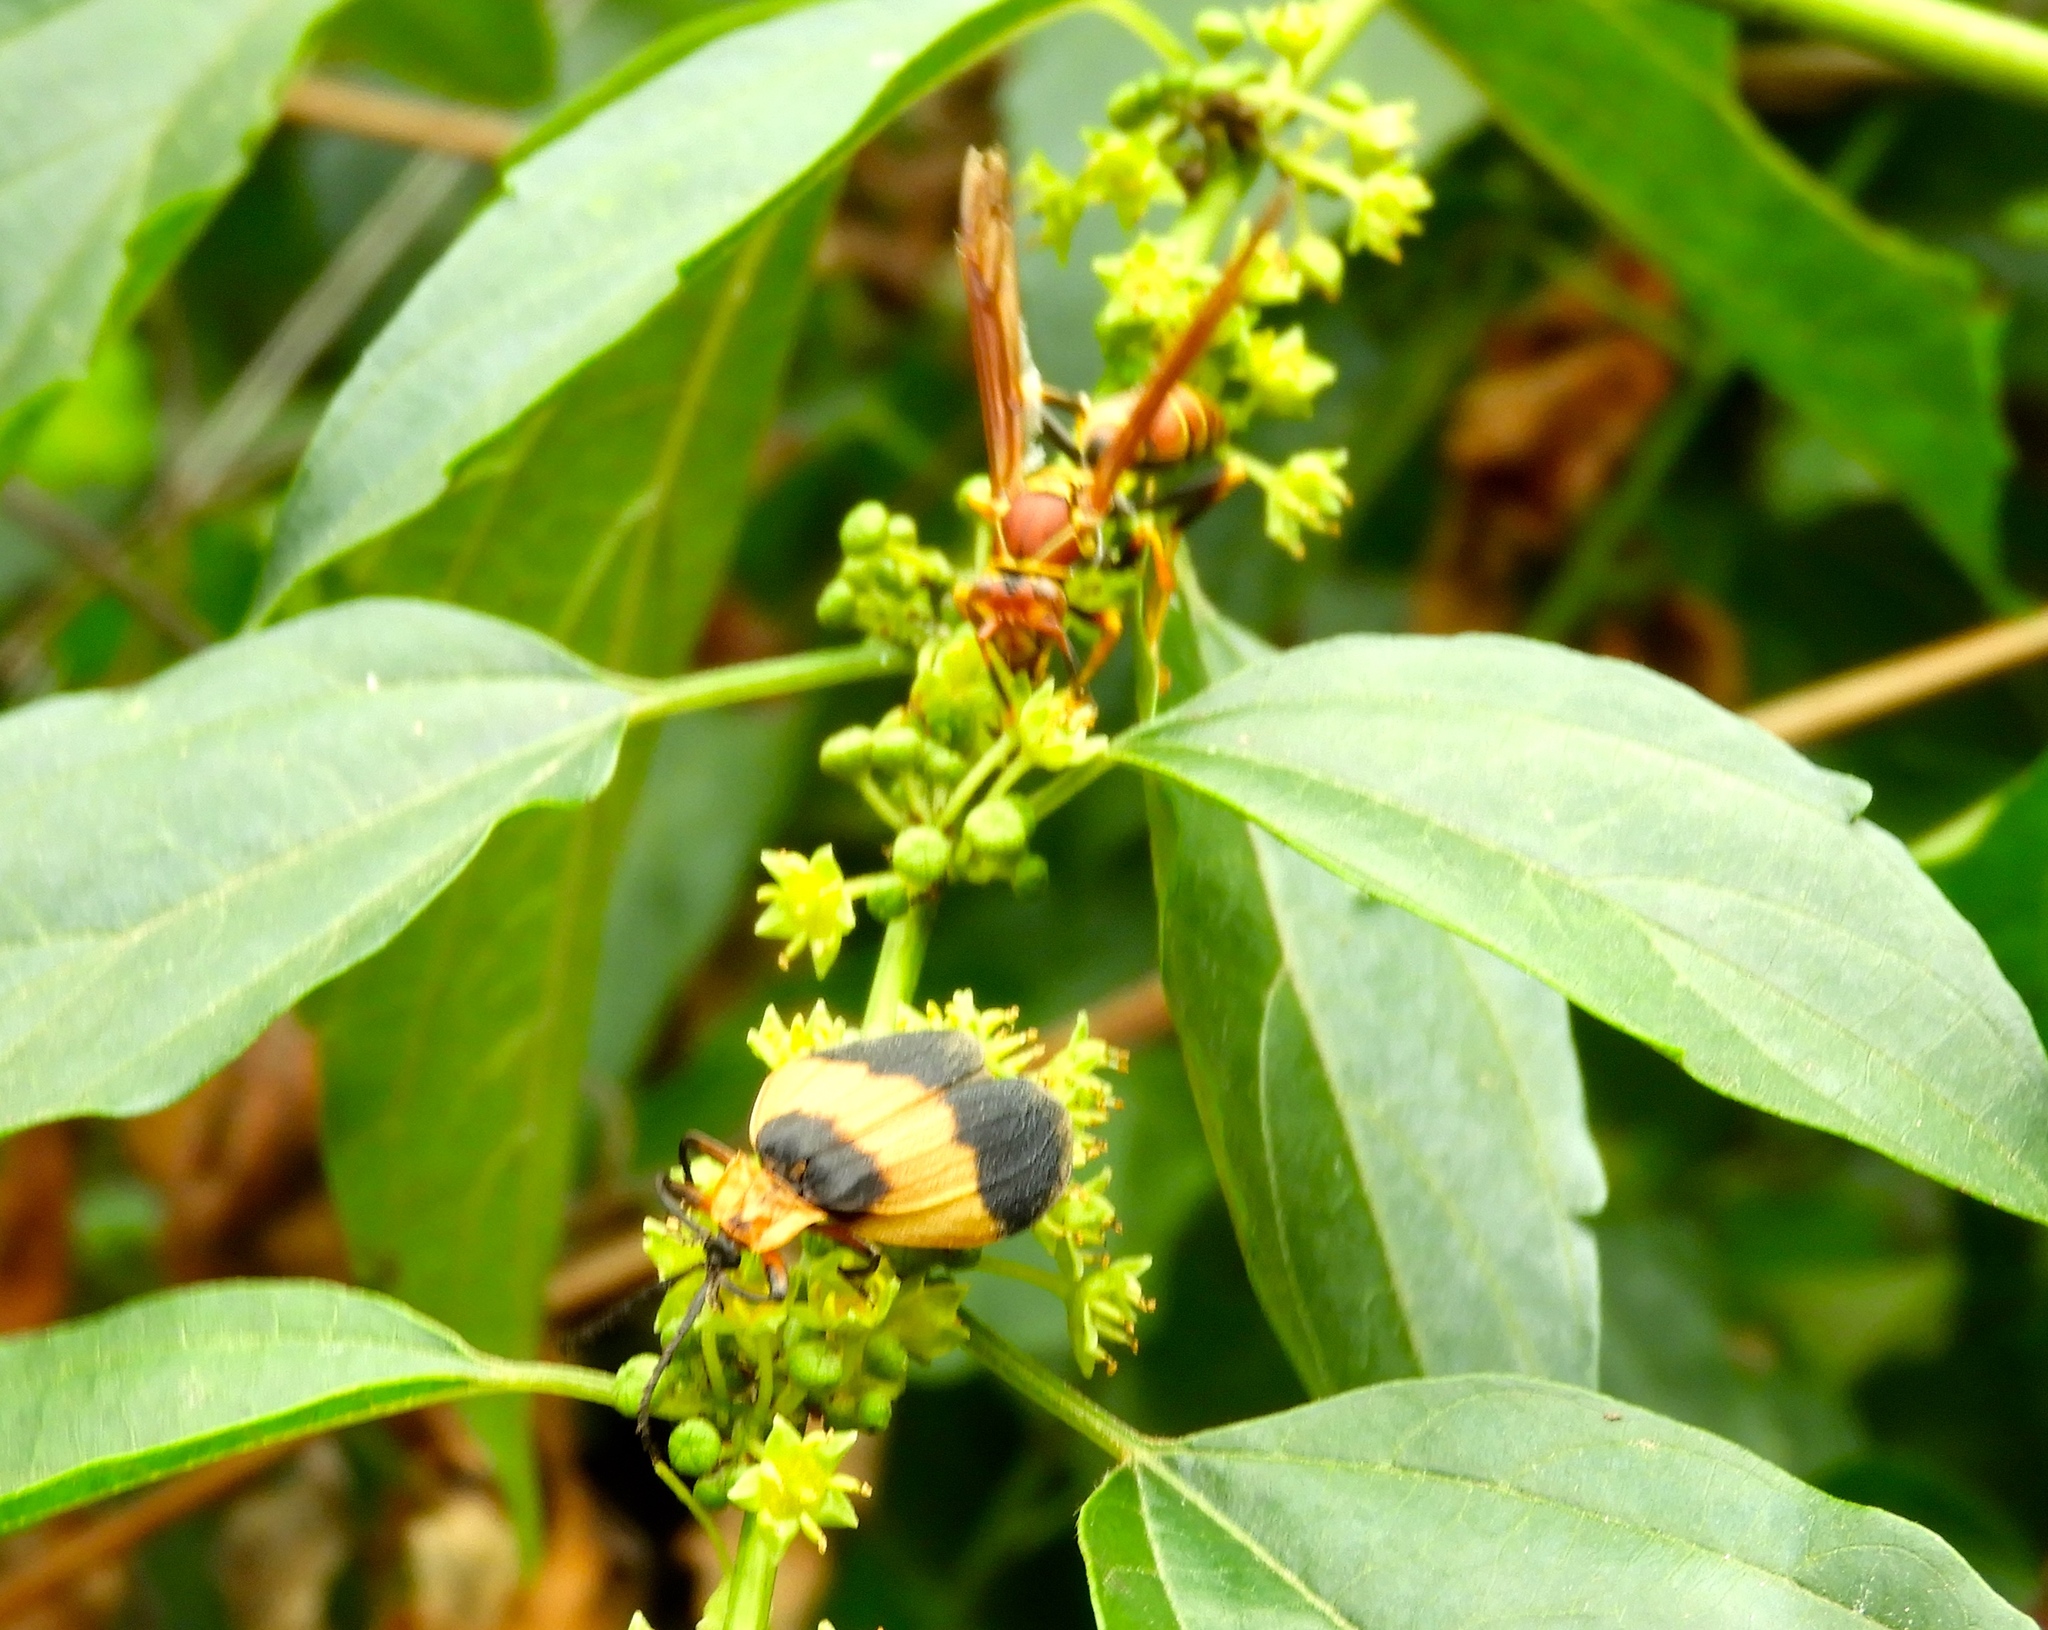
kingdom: Animalia
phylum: Arthropoda
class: Insecta
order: Coleoptera
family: Lycidae
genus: Lycus
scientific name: Lycus
